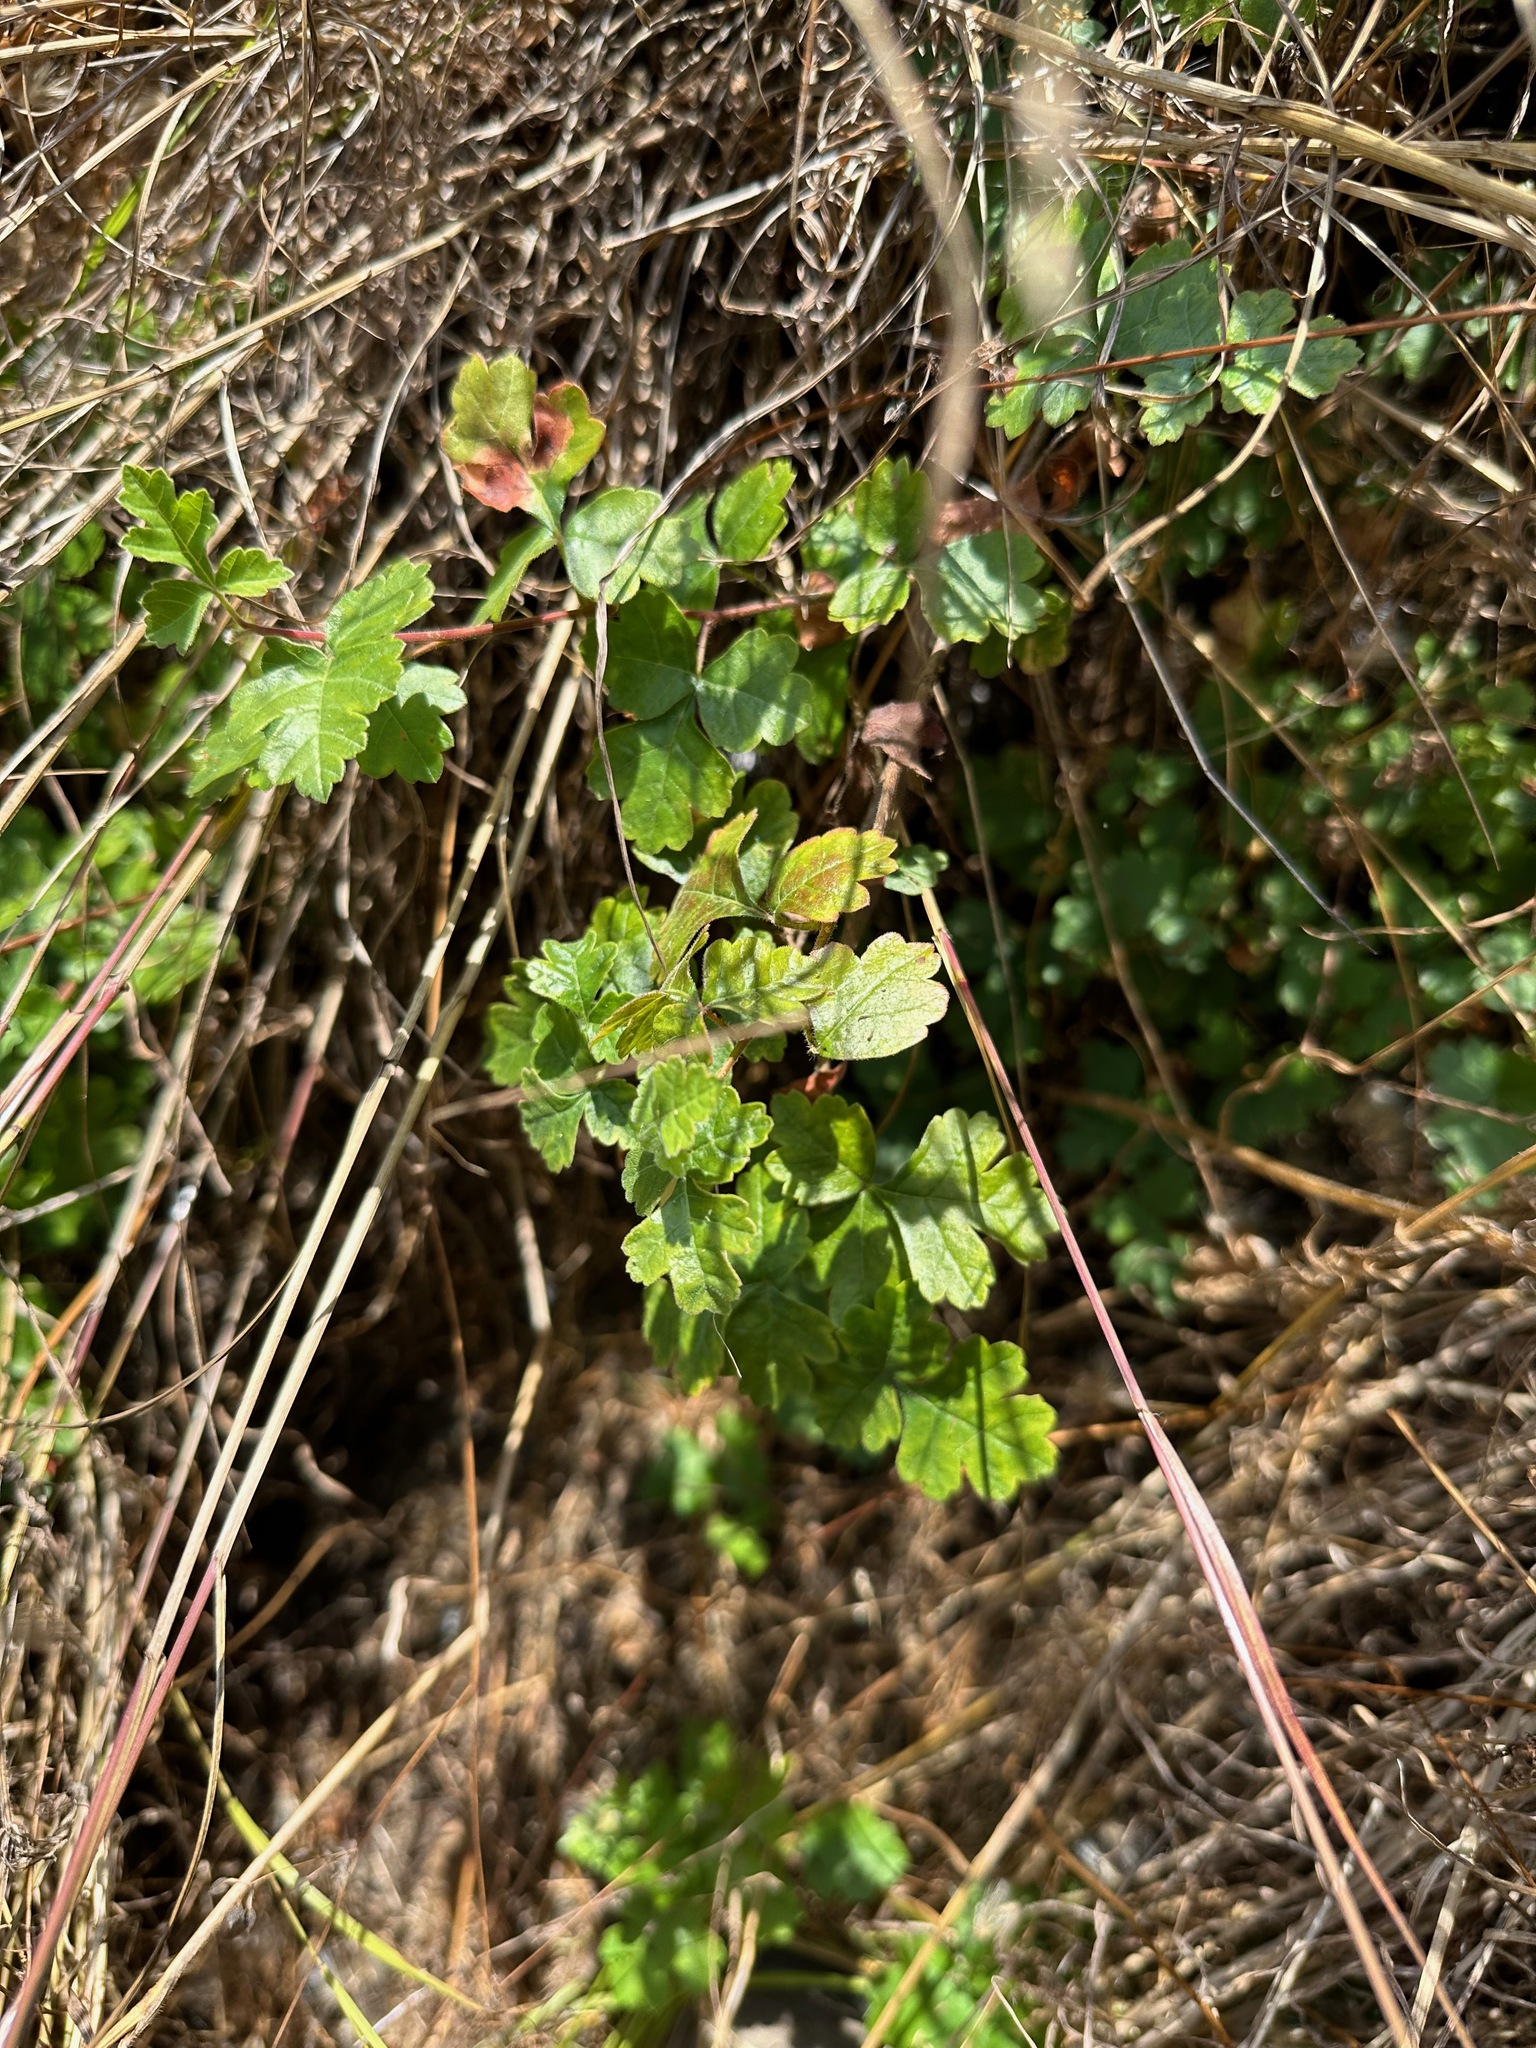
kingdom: Plantae
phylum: Tracheophyta
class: Magnoliopsida
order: Sapindales
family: Anacardiaceae
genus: Rhus
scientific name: Rhus aromatica
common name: Aromatic sumac
